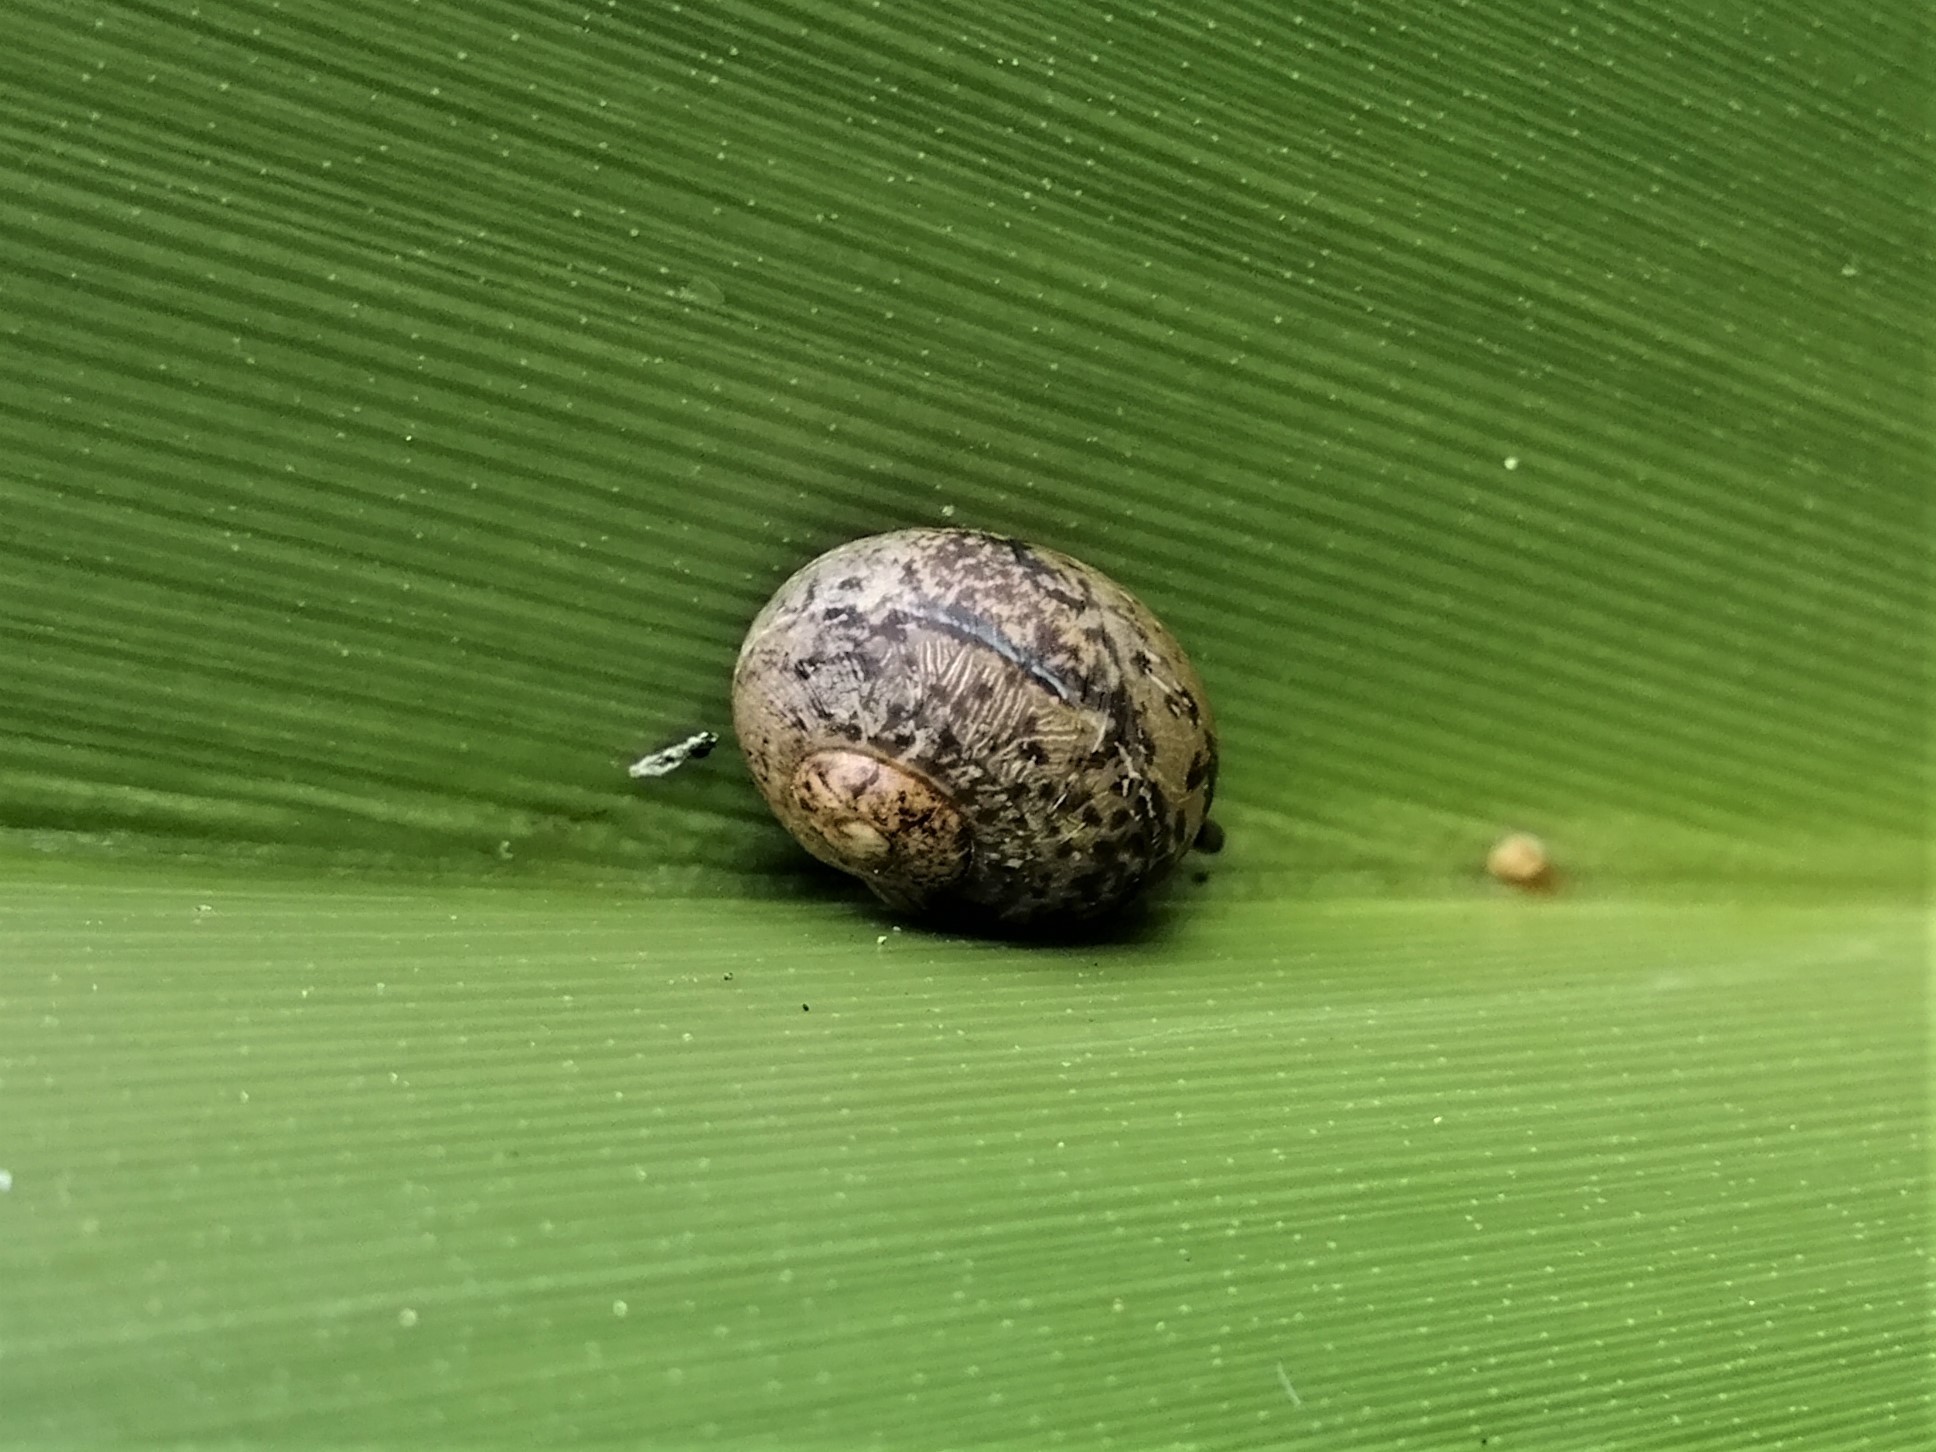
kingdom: Animalia
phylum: Mollusca
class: Gastropoda
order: Stylommatophora
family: Helicidae
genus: Cornu
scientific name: Cornu aspersum
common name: Brown garden snail
